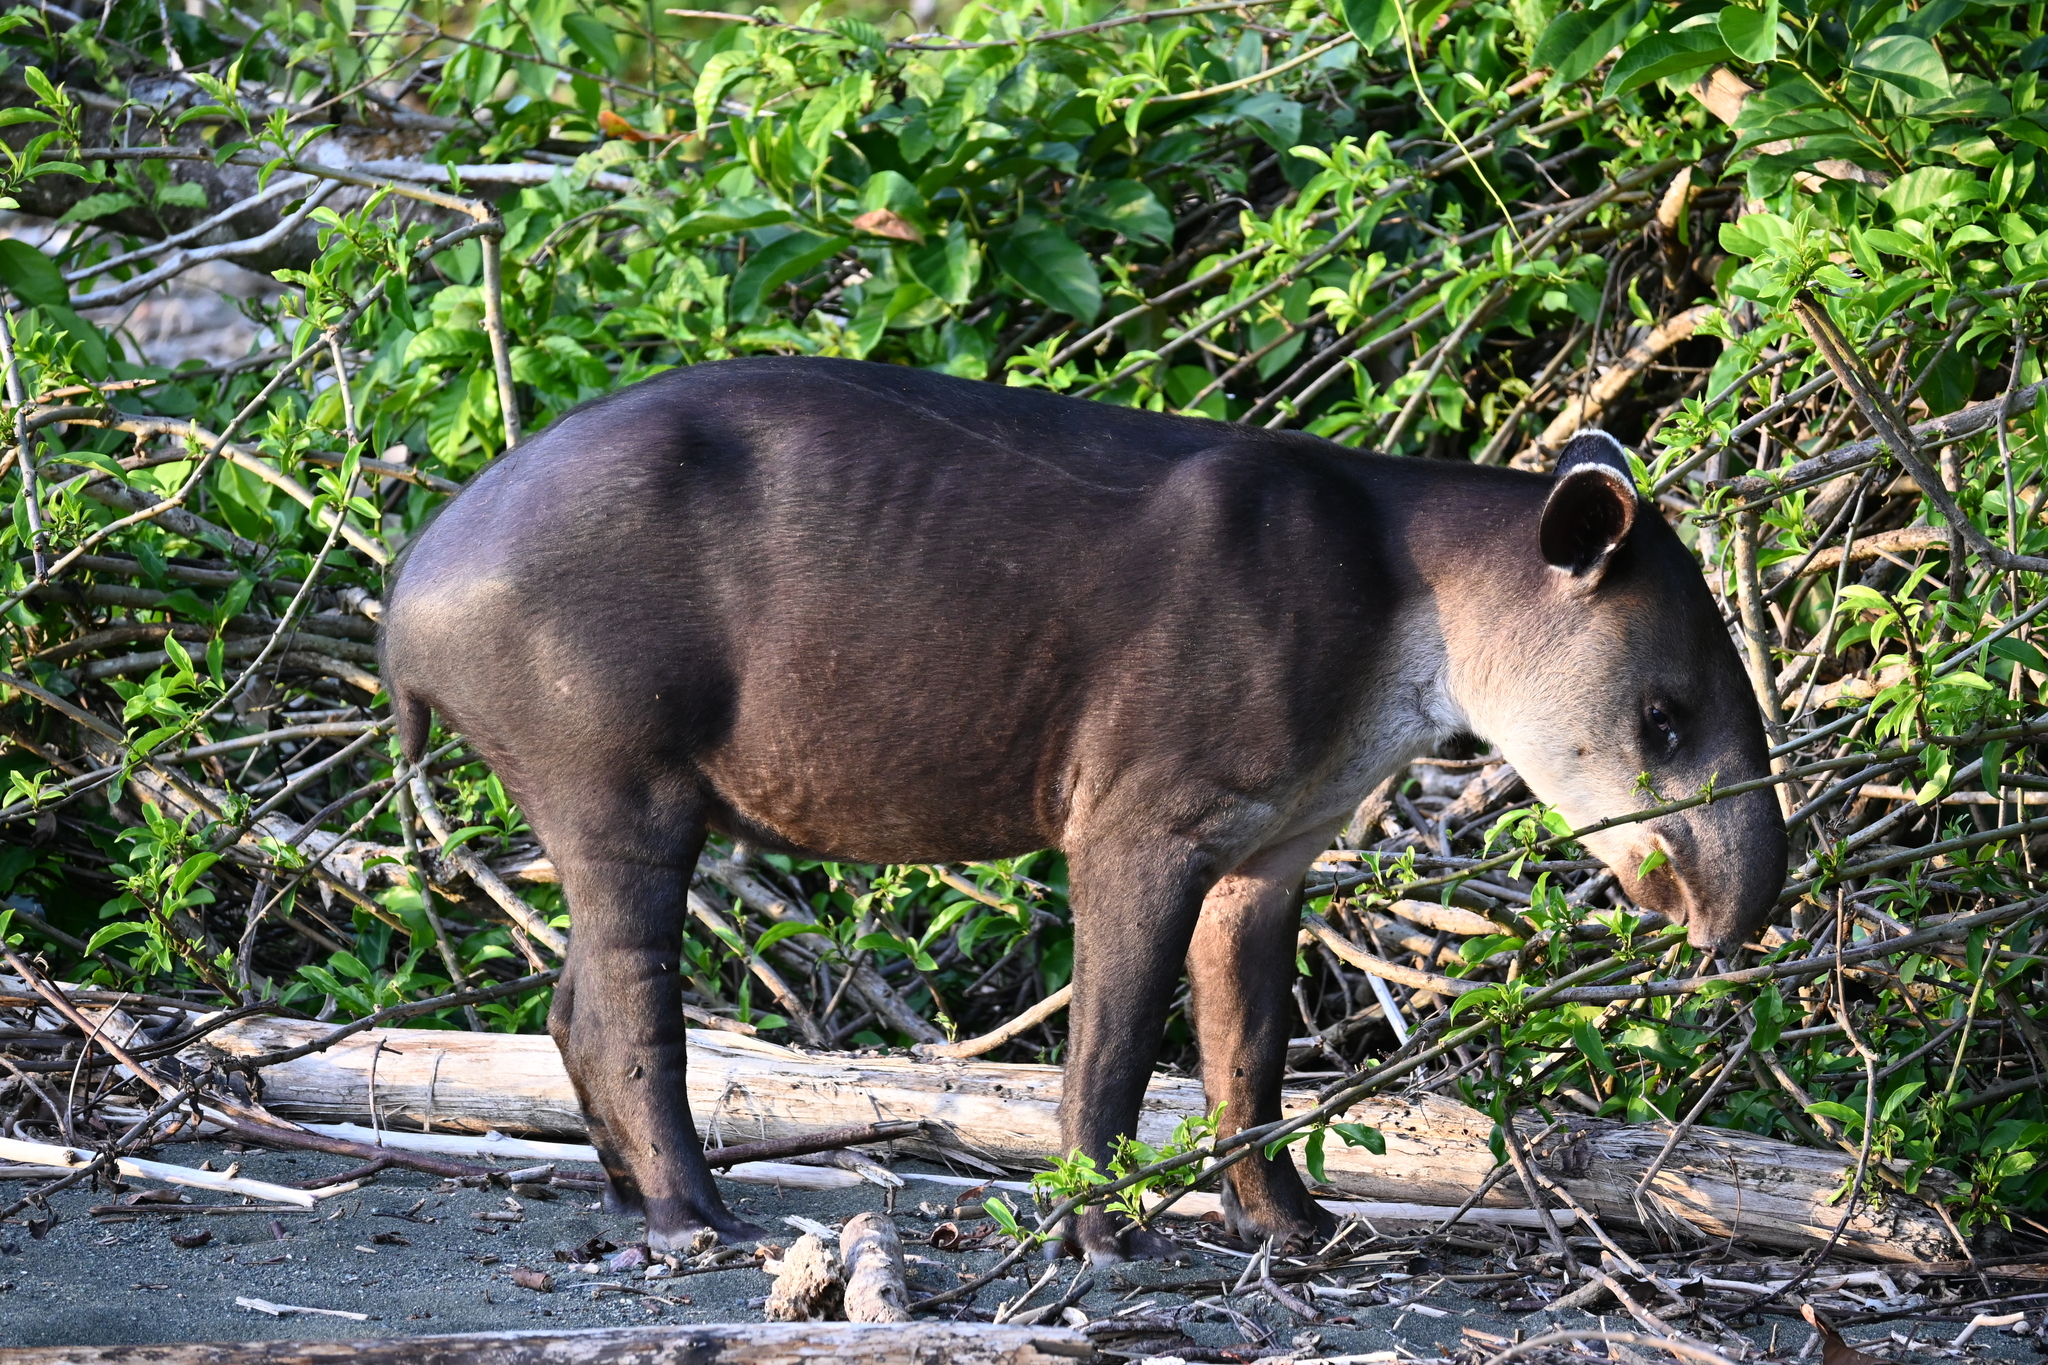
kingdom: Animalia
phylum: Chordata
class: Mammalia
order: Perissodactyla
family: Tapiridae
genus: Tapirella
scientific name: Tapirella bairdii
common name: Baird's tapir
